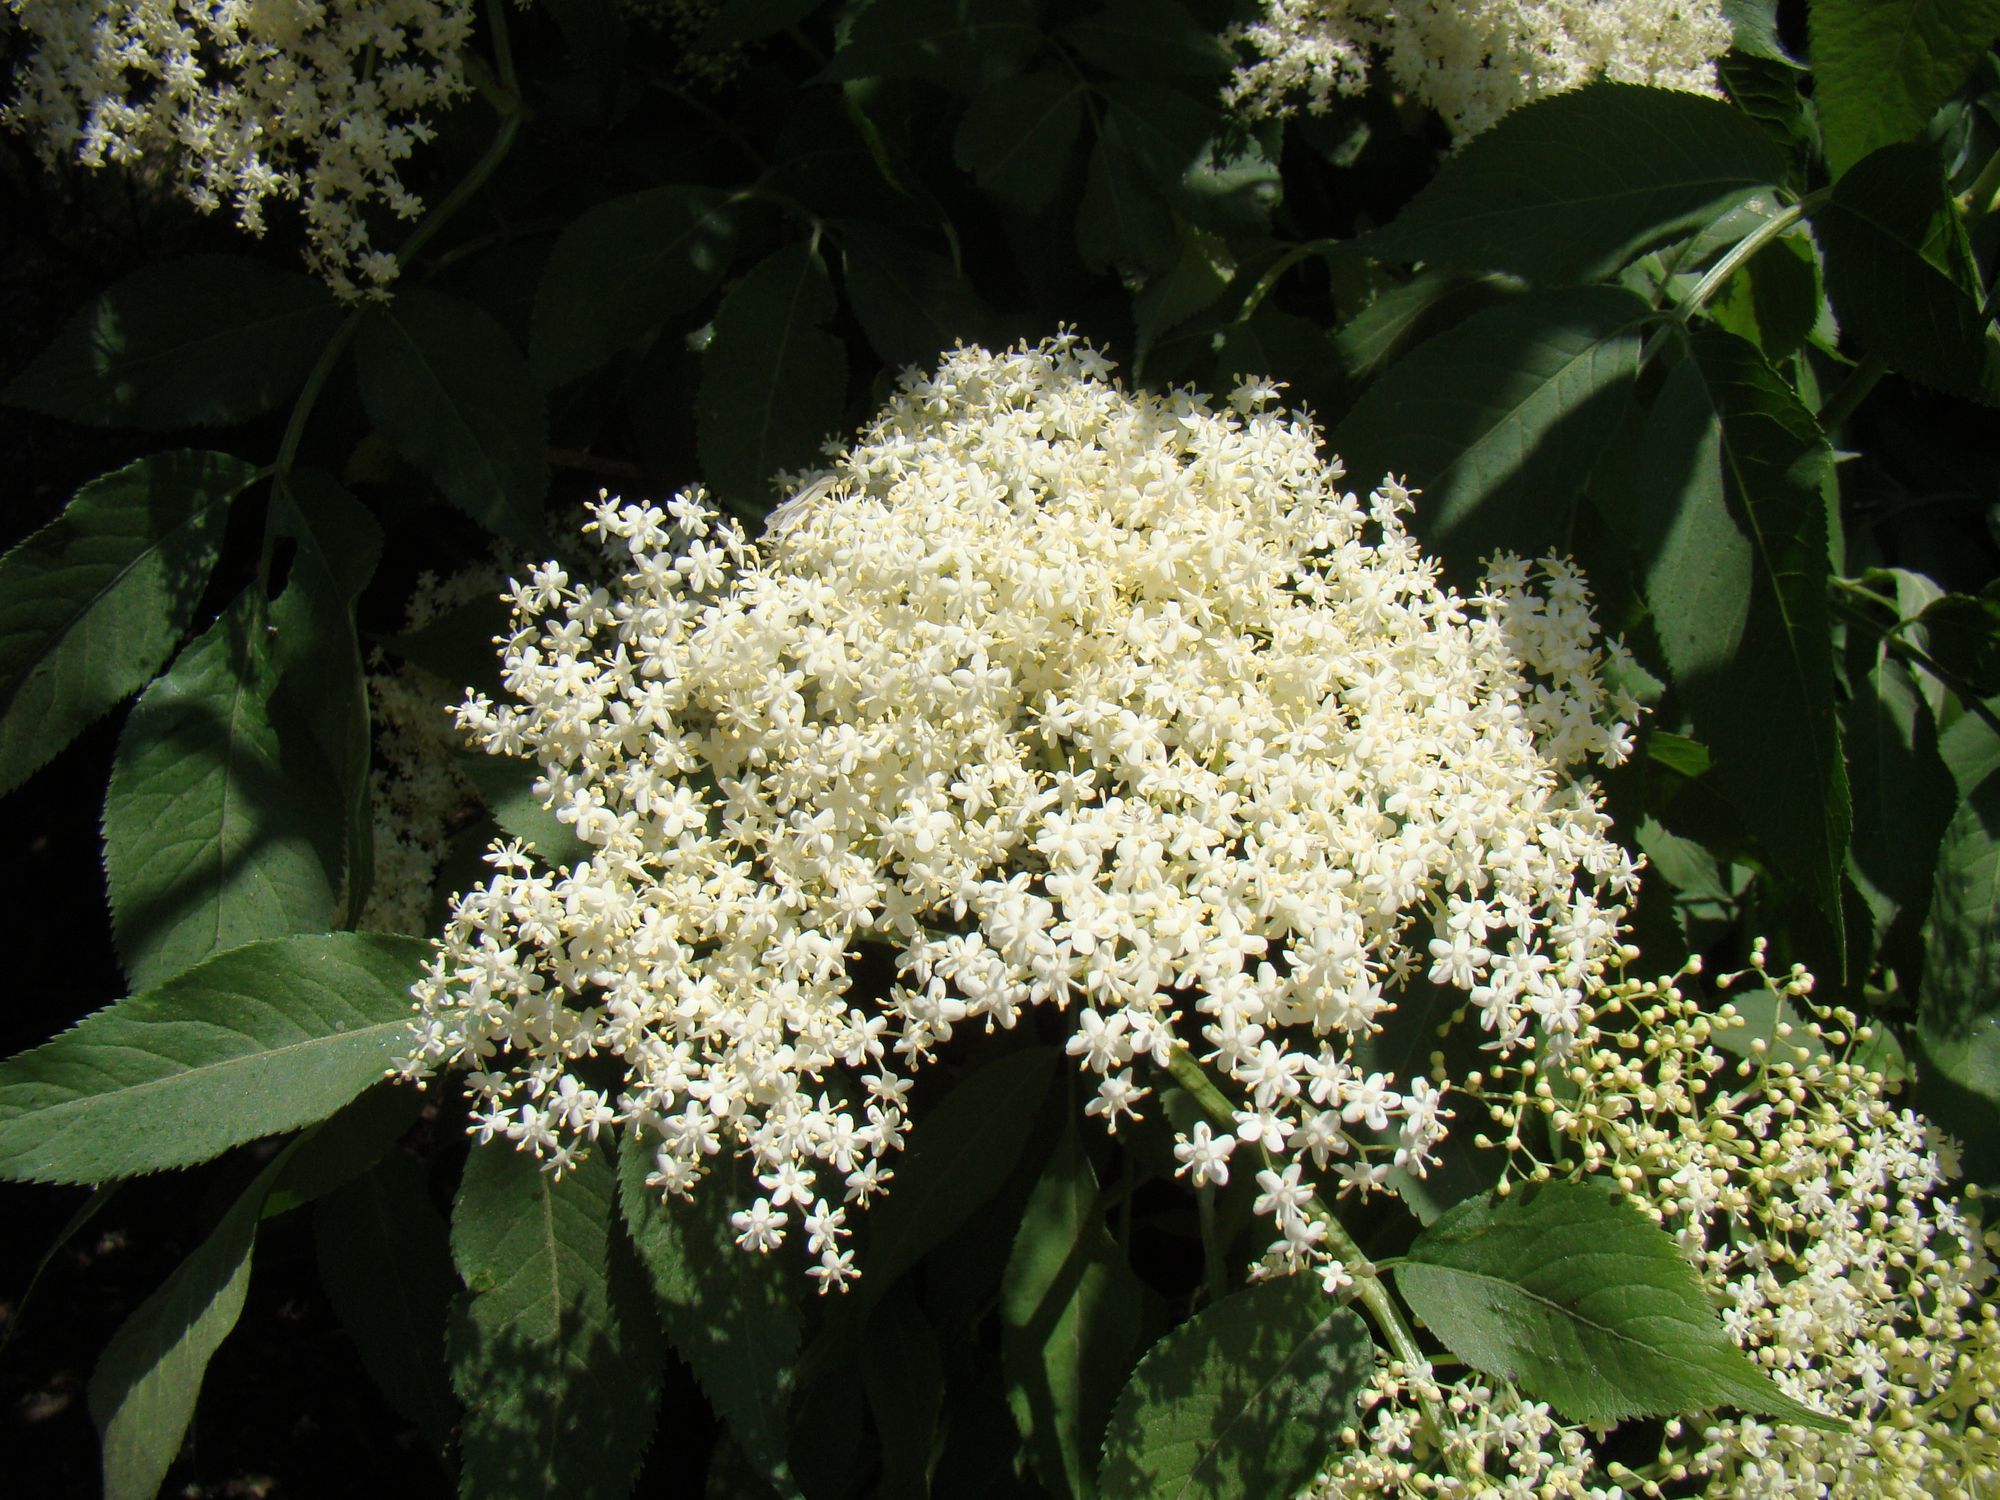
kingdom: Plantae
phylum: Tracheophyta
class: Magnoliopsida
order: Dipsacales
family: Viburnaceae
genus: Sambucus
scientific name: Sambucus nigra
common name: Elder
